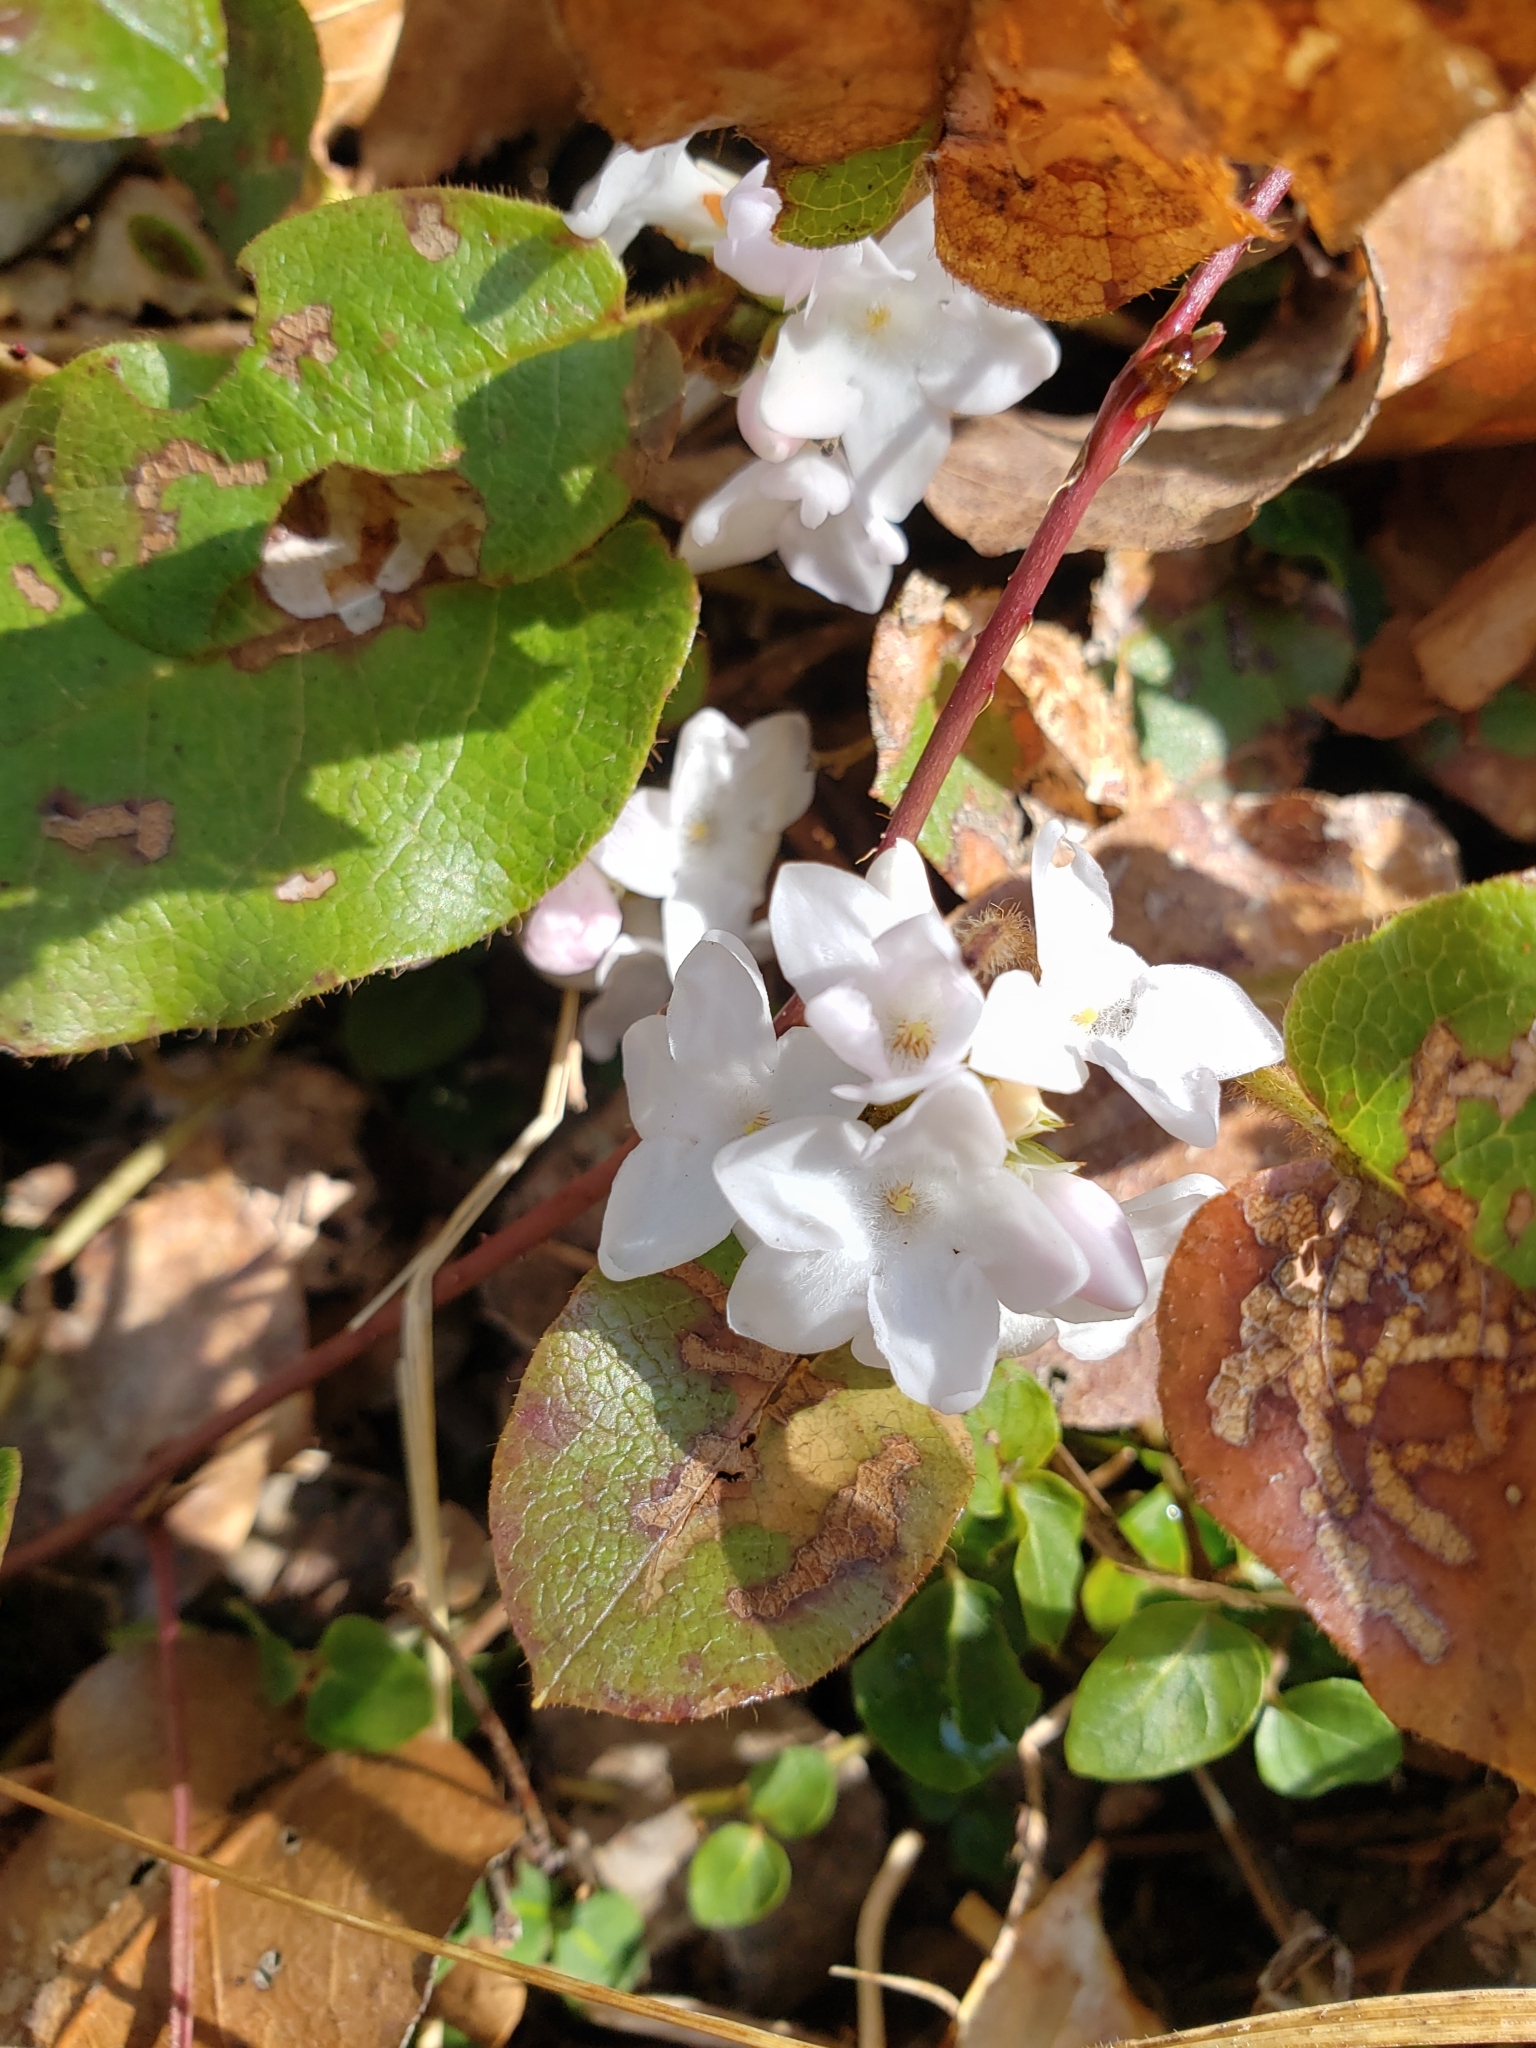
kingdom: Plantae
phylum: Tracheophyta
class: Magnoliopsida
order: Ericales
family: Ericaceae
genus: Epigaea
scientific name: Epigaea repens
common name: Gravelroot
